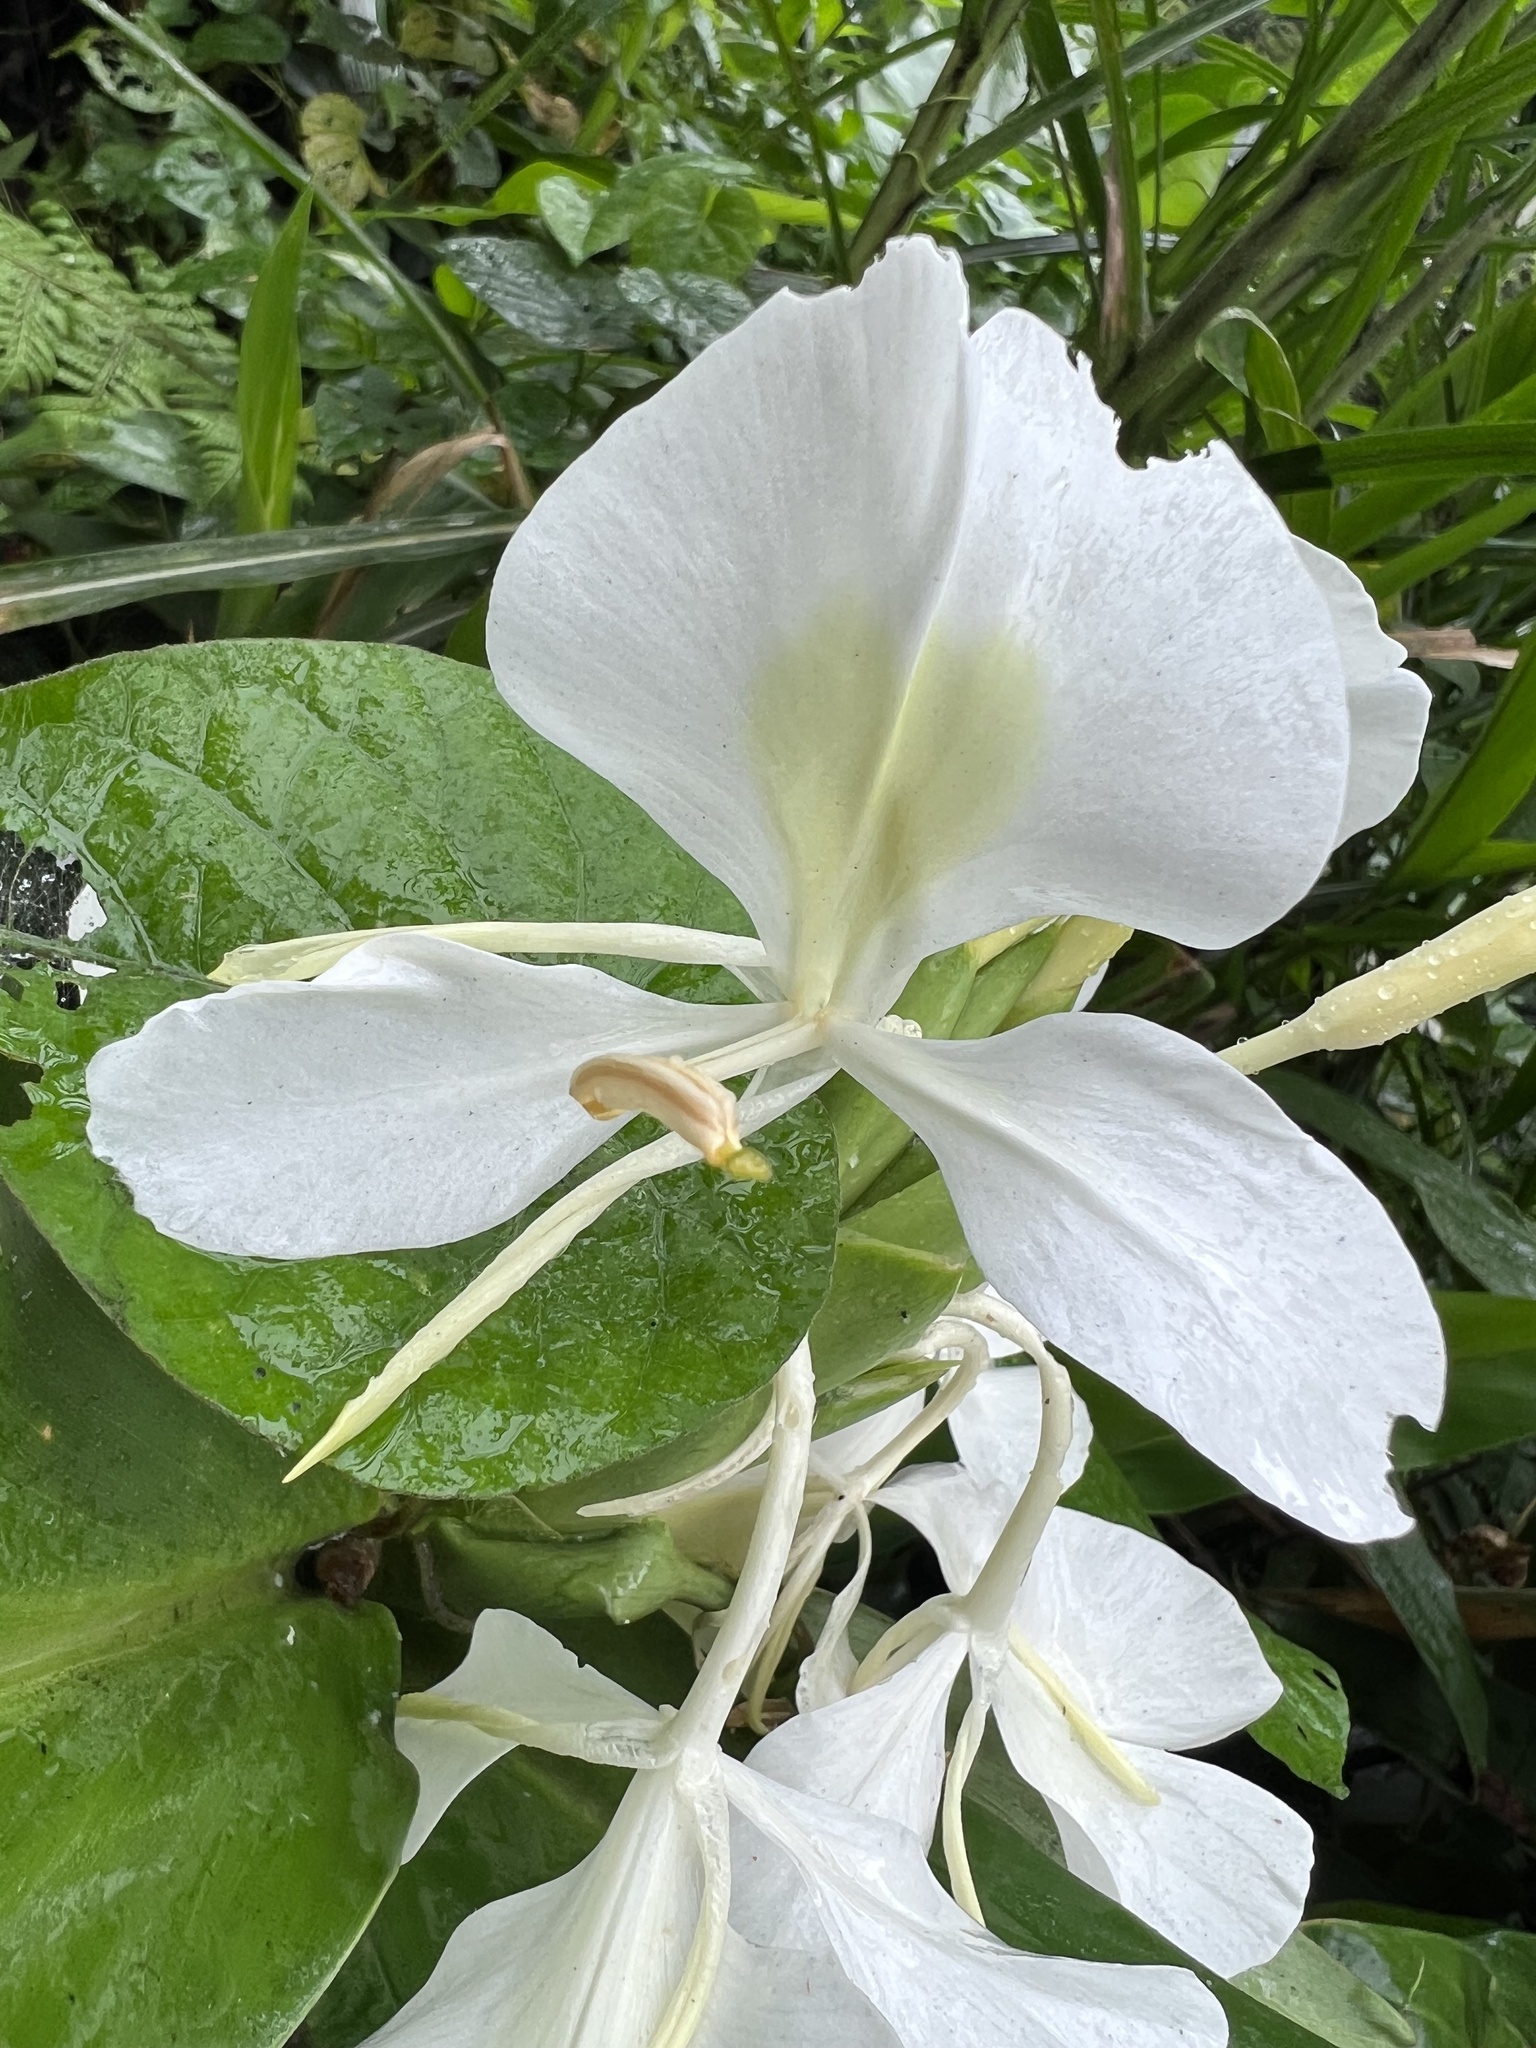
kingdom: Plantae
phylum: Tracheophyta
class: Liliopsida
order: Zingiberales
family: Zingiberaceae
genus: Hedychium
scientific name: Hedychium coronarium
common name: White garland-lily
